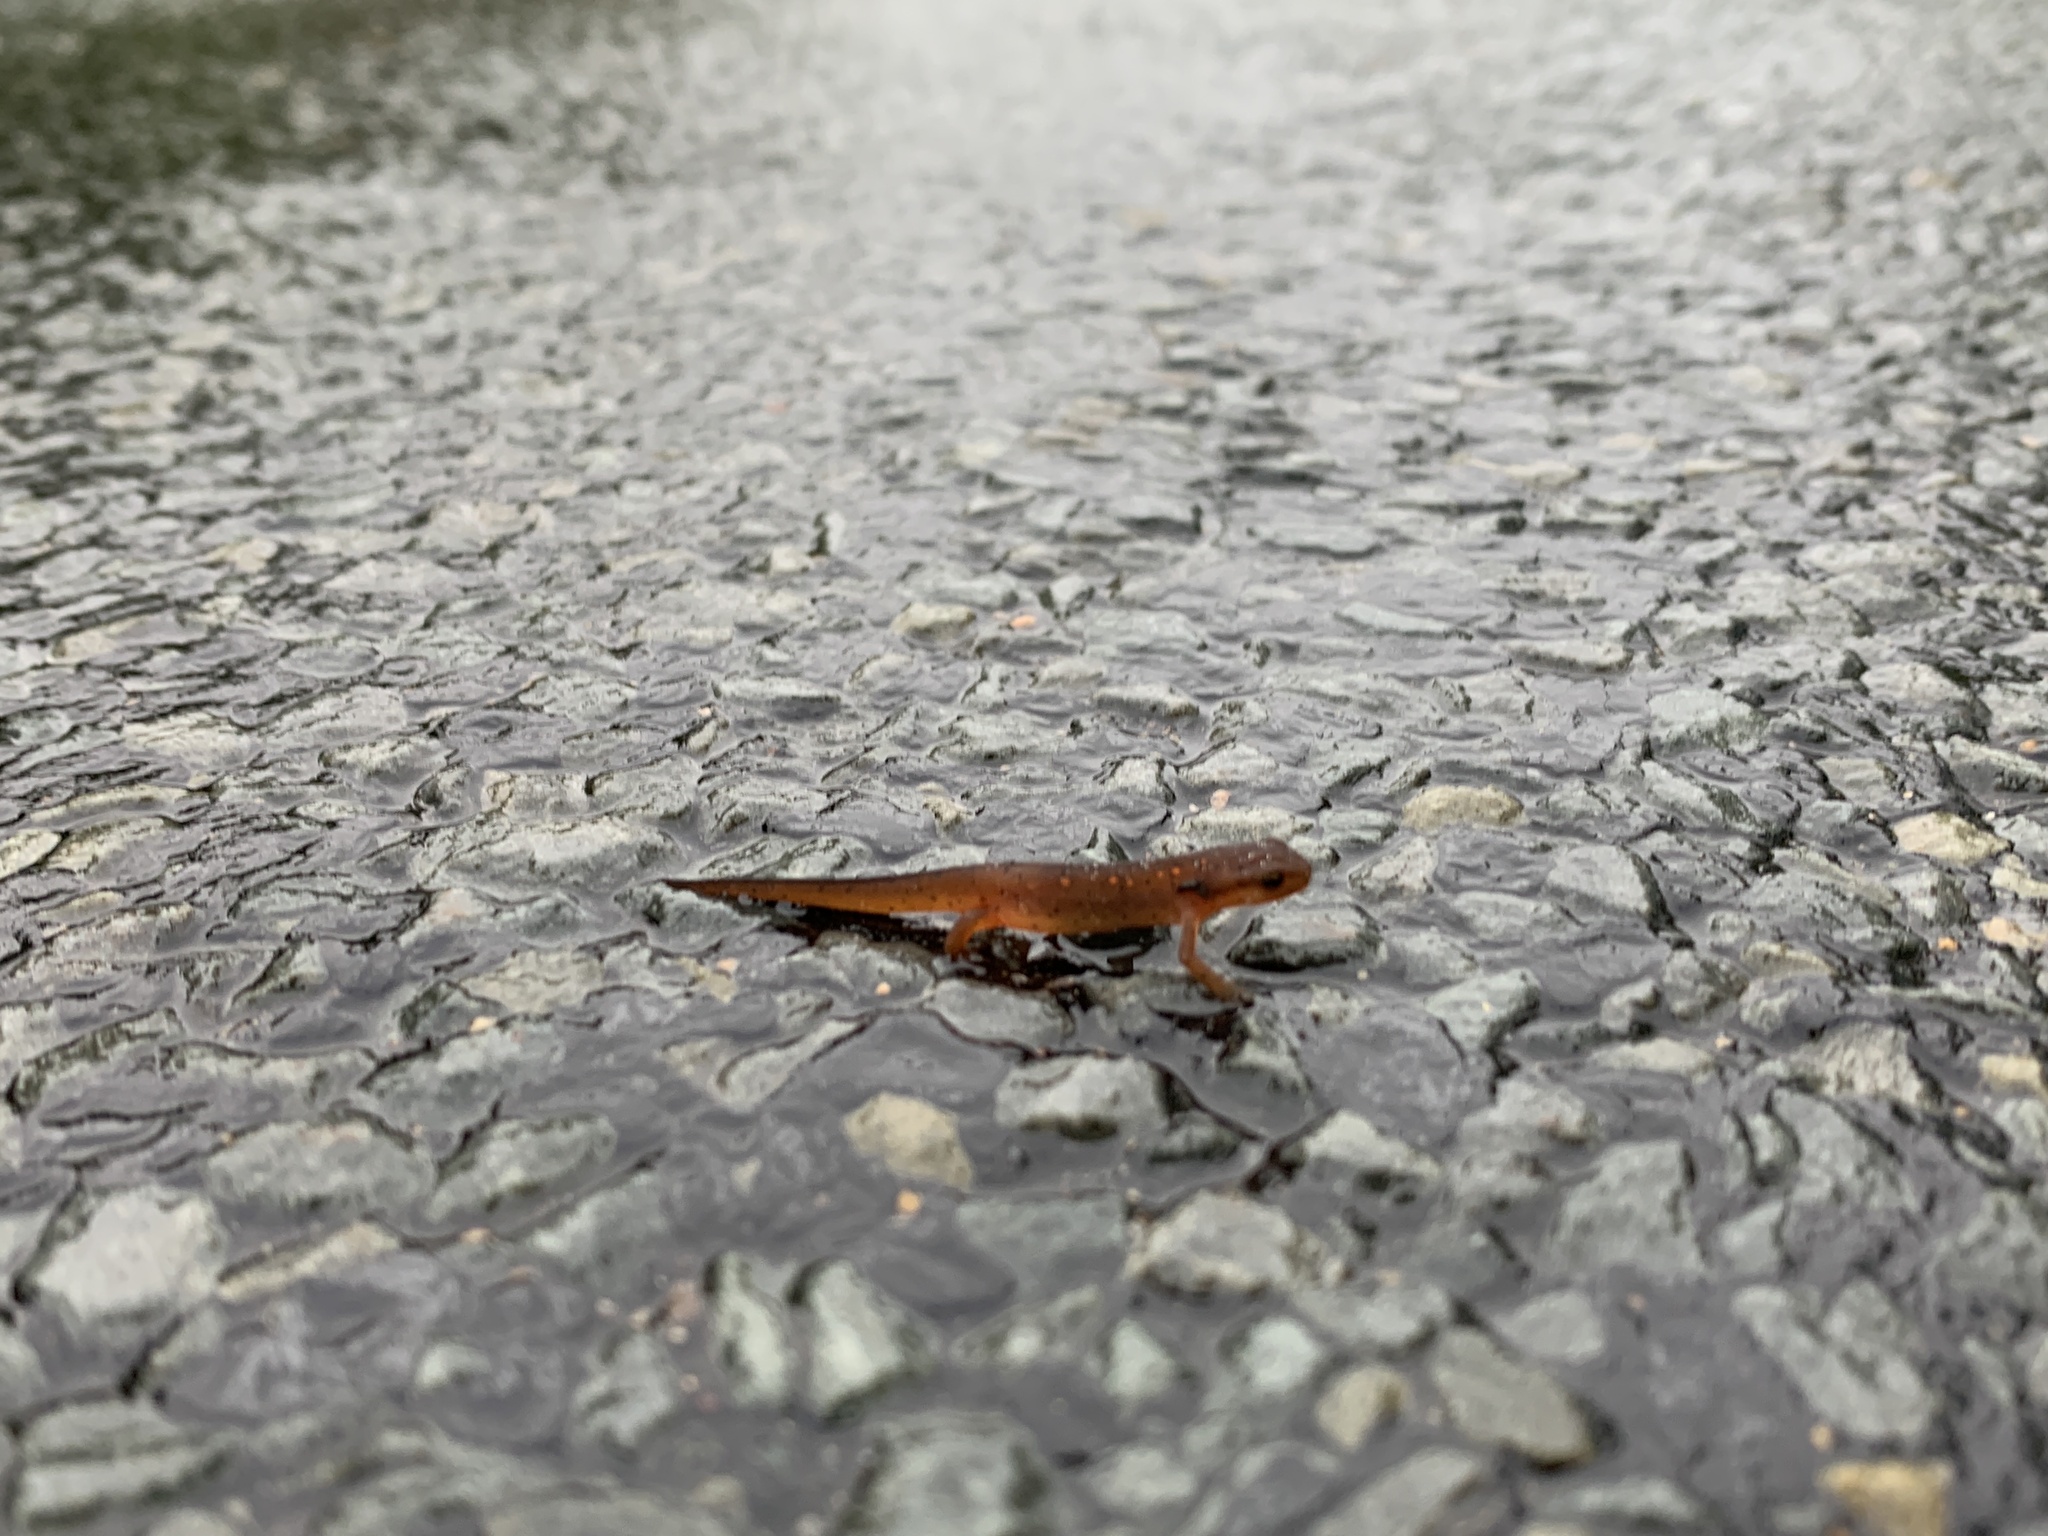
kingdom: Animalia
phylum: Chordata
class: Amphibia
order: Caudata
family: Salamandridae
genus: Notophthalmus
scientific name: Notophthalmus viridescens
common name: Eastern newt
